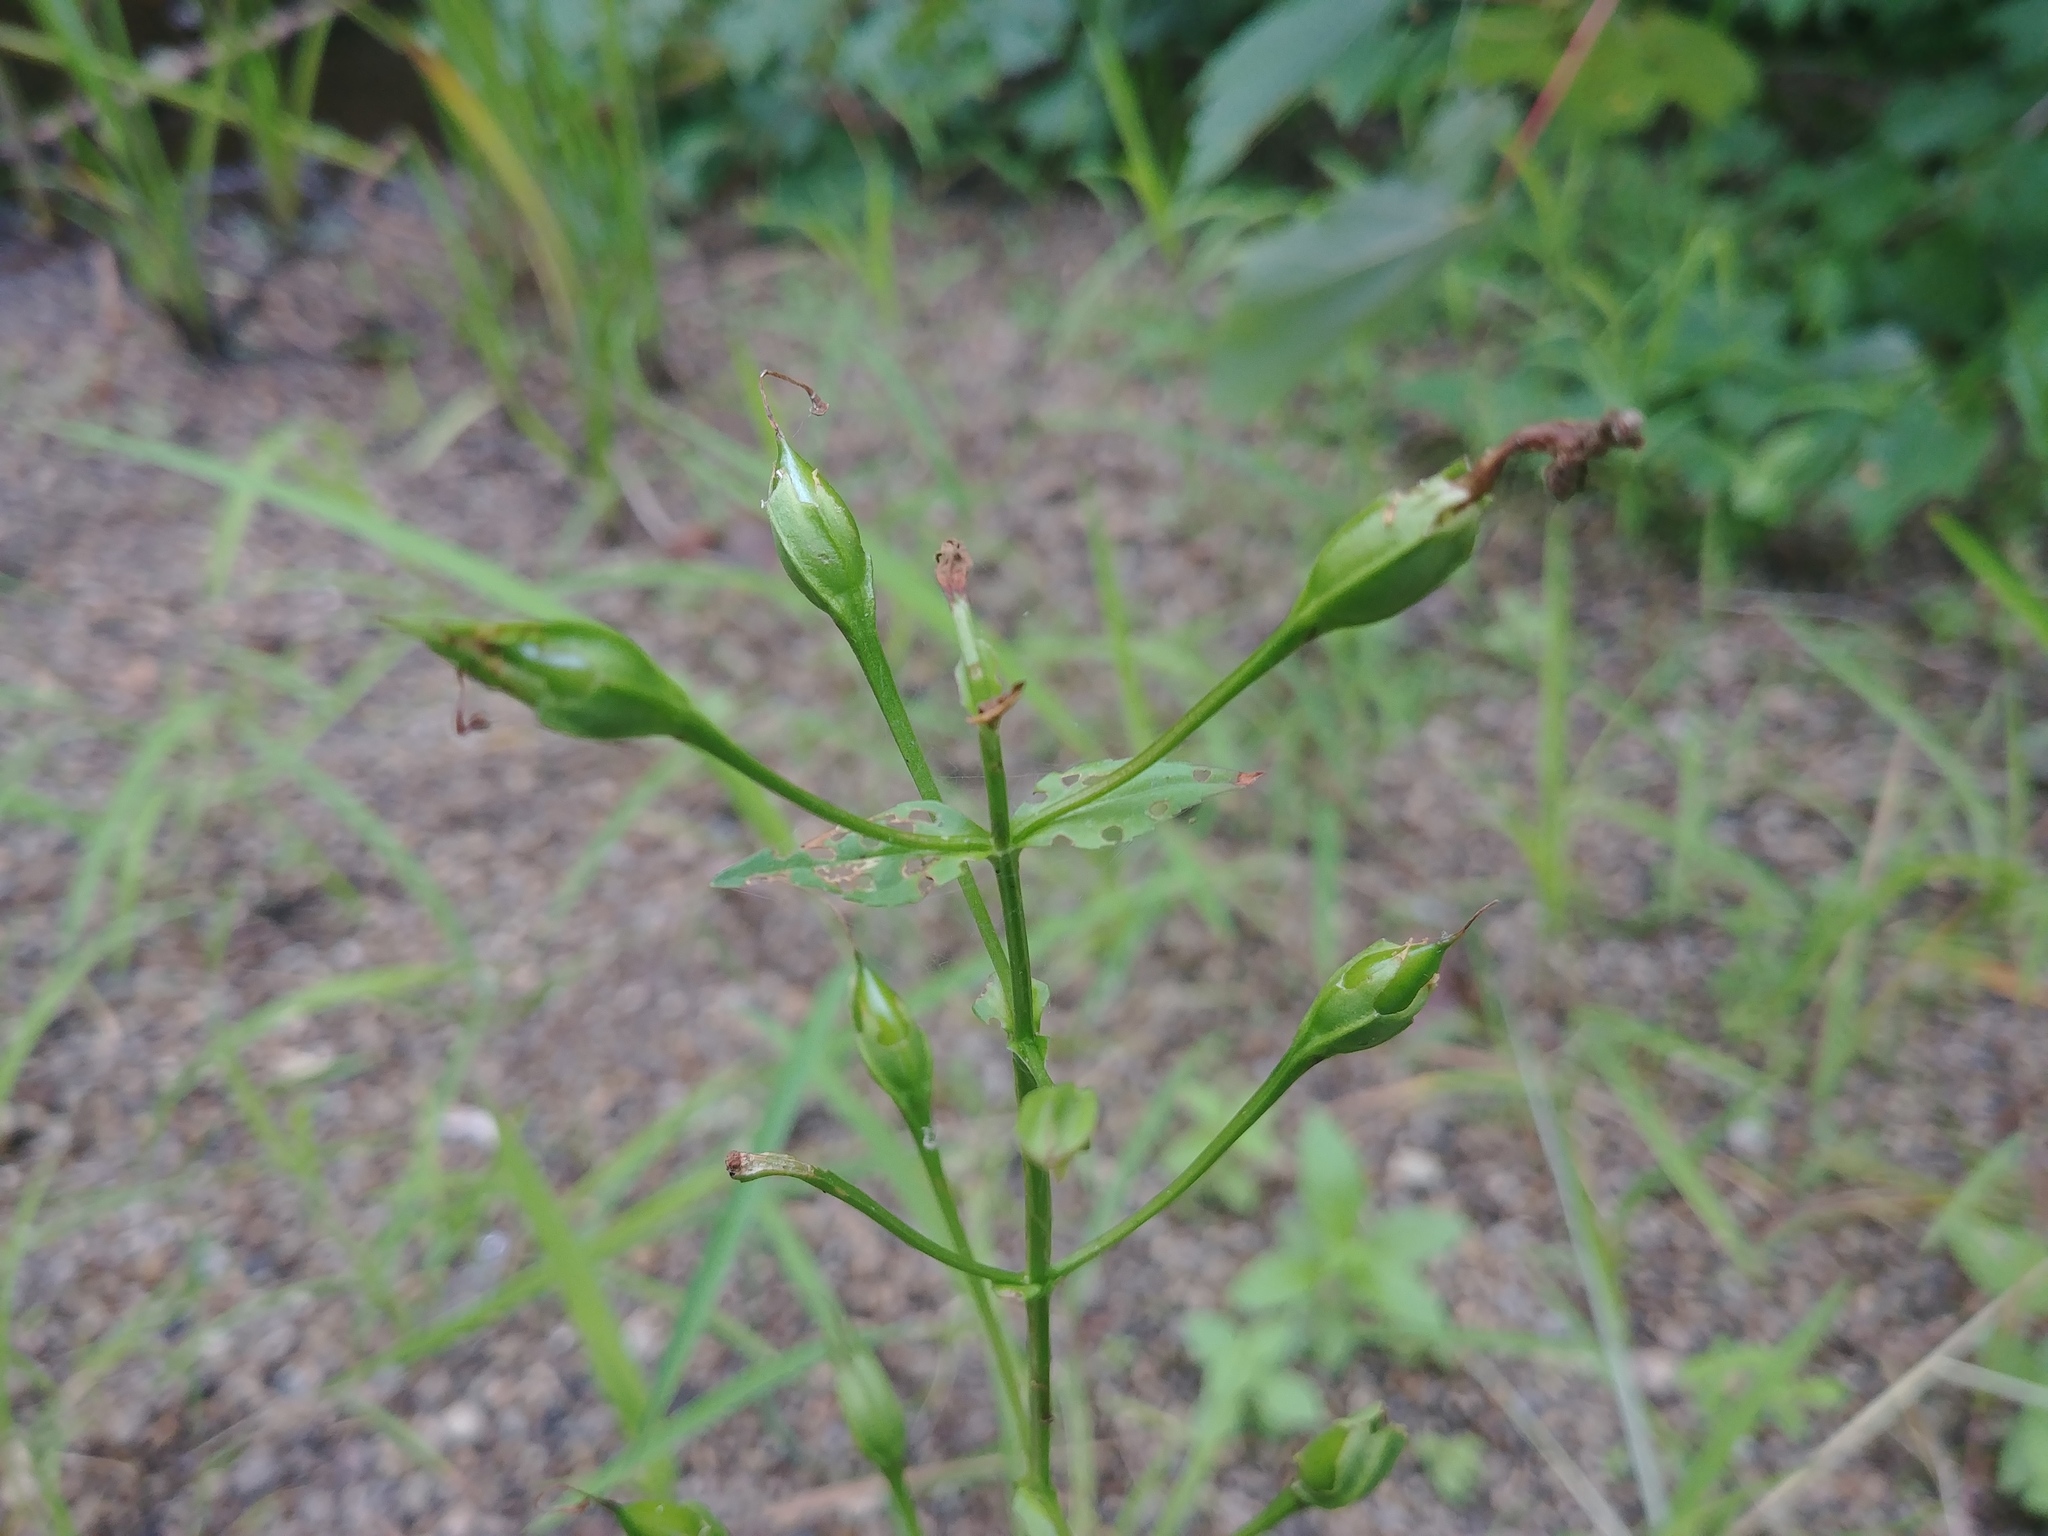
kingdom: Plantae
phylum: Tracheophyta
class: Magnoliopsida
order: Lamiales
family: Phrymaceae
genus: Mimulus
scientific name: Mimulus ringens
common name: Allegheny monkeyflower
